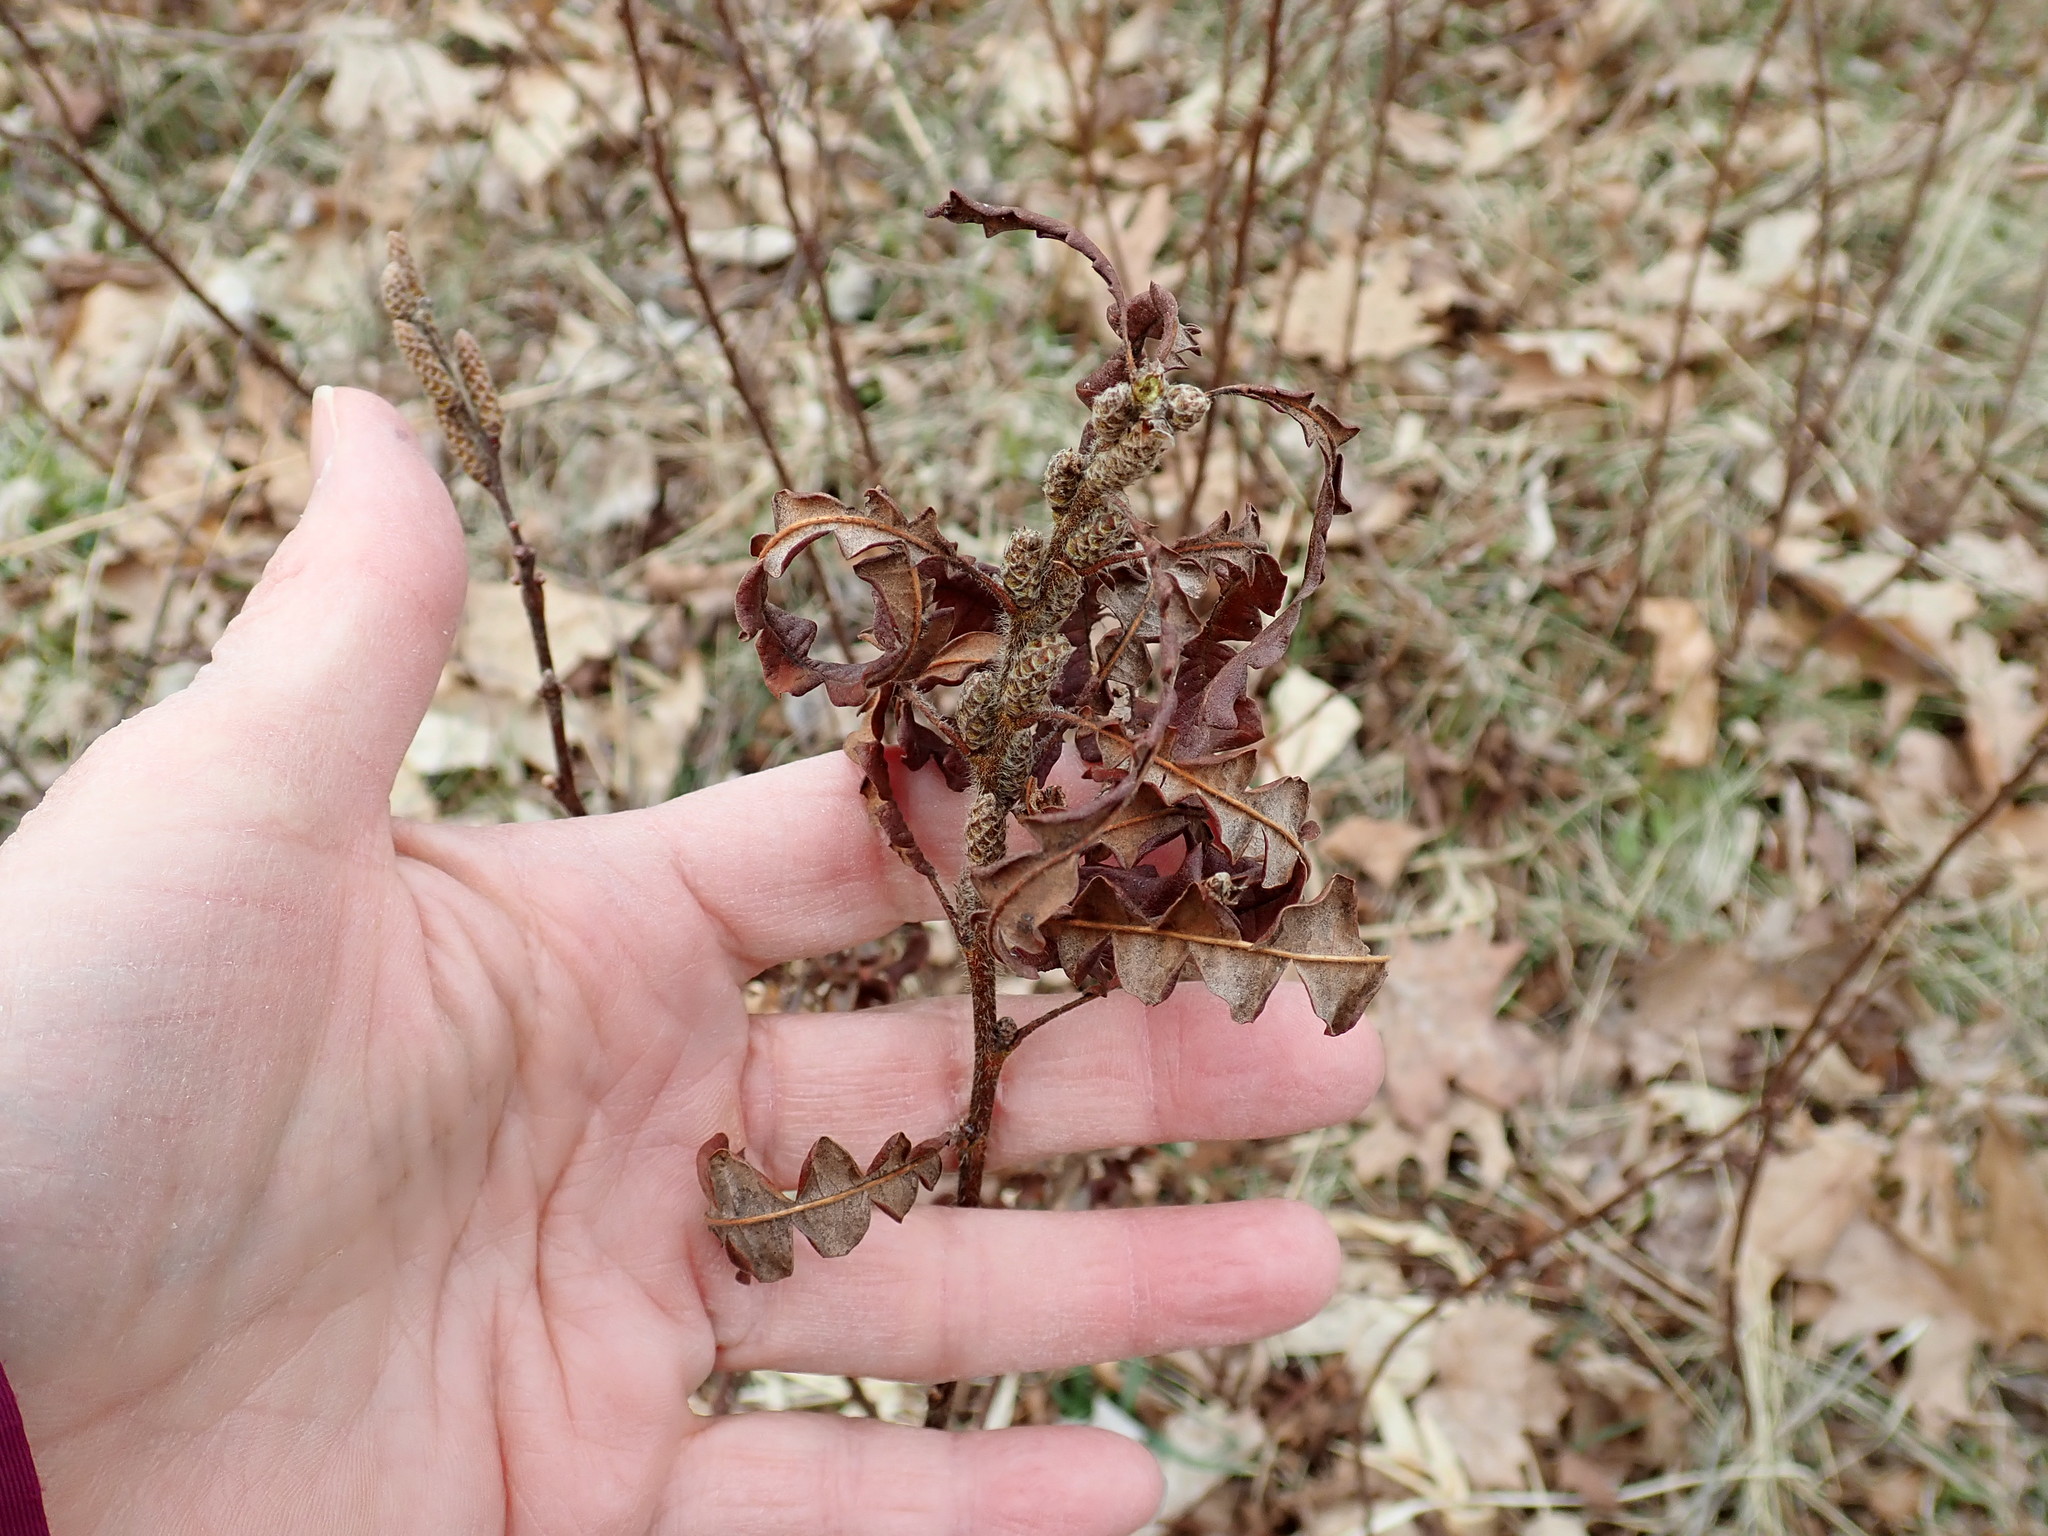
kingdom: Plantae
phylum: Tracheophyta
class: Magnoliopsida
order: Fagales
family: Myricaceae
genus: Comptonia
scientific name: Comptonia peregrina
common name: Sweet-fern
